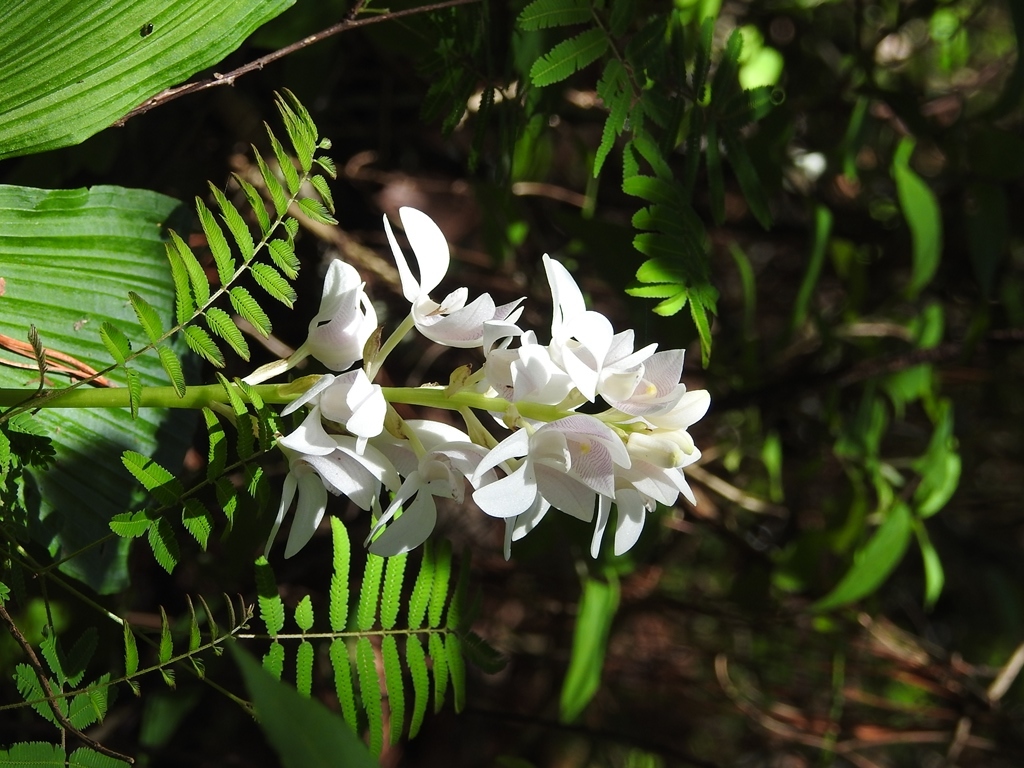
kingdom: Plantae
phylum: Tracheophyta
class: Liliopsida
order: Asparagales
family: Orchidaceae
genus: Govenia
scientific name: Govenia liliacea
